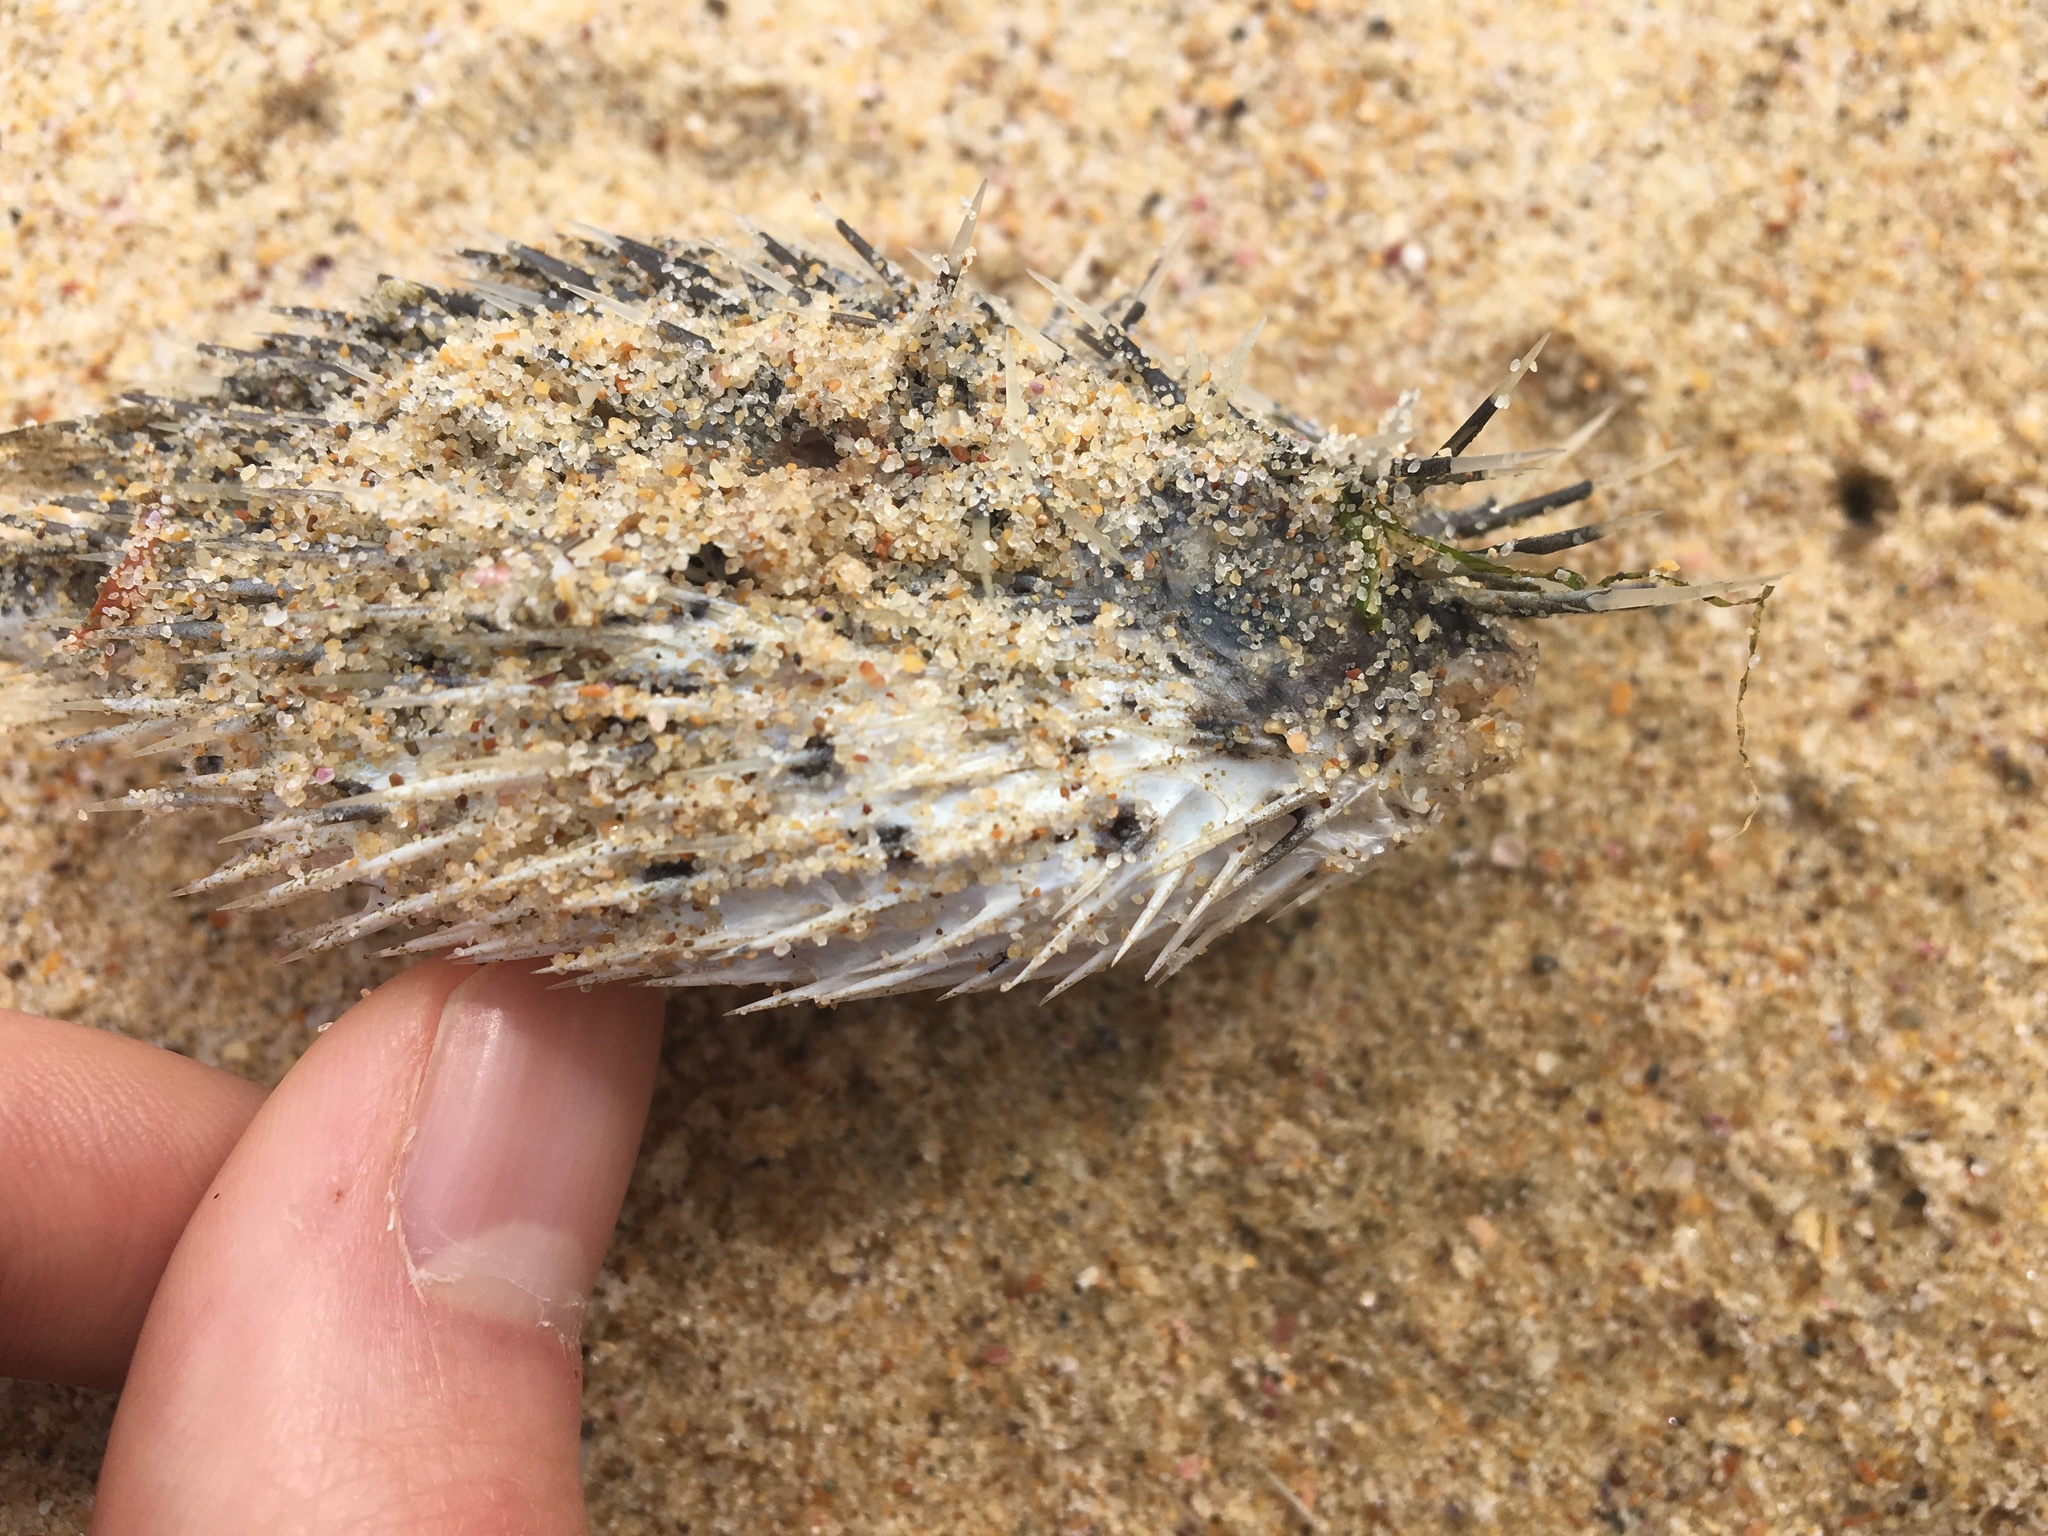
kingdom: Animalia
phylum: Chordata
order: Tetraodontiformes
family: Diodontidae
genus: Diodon
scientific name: Diodon holocanthus
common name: Balloonfish
